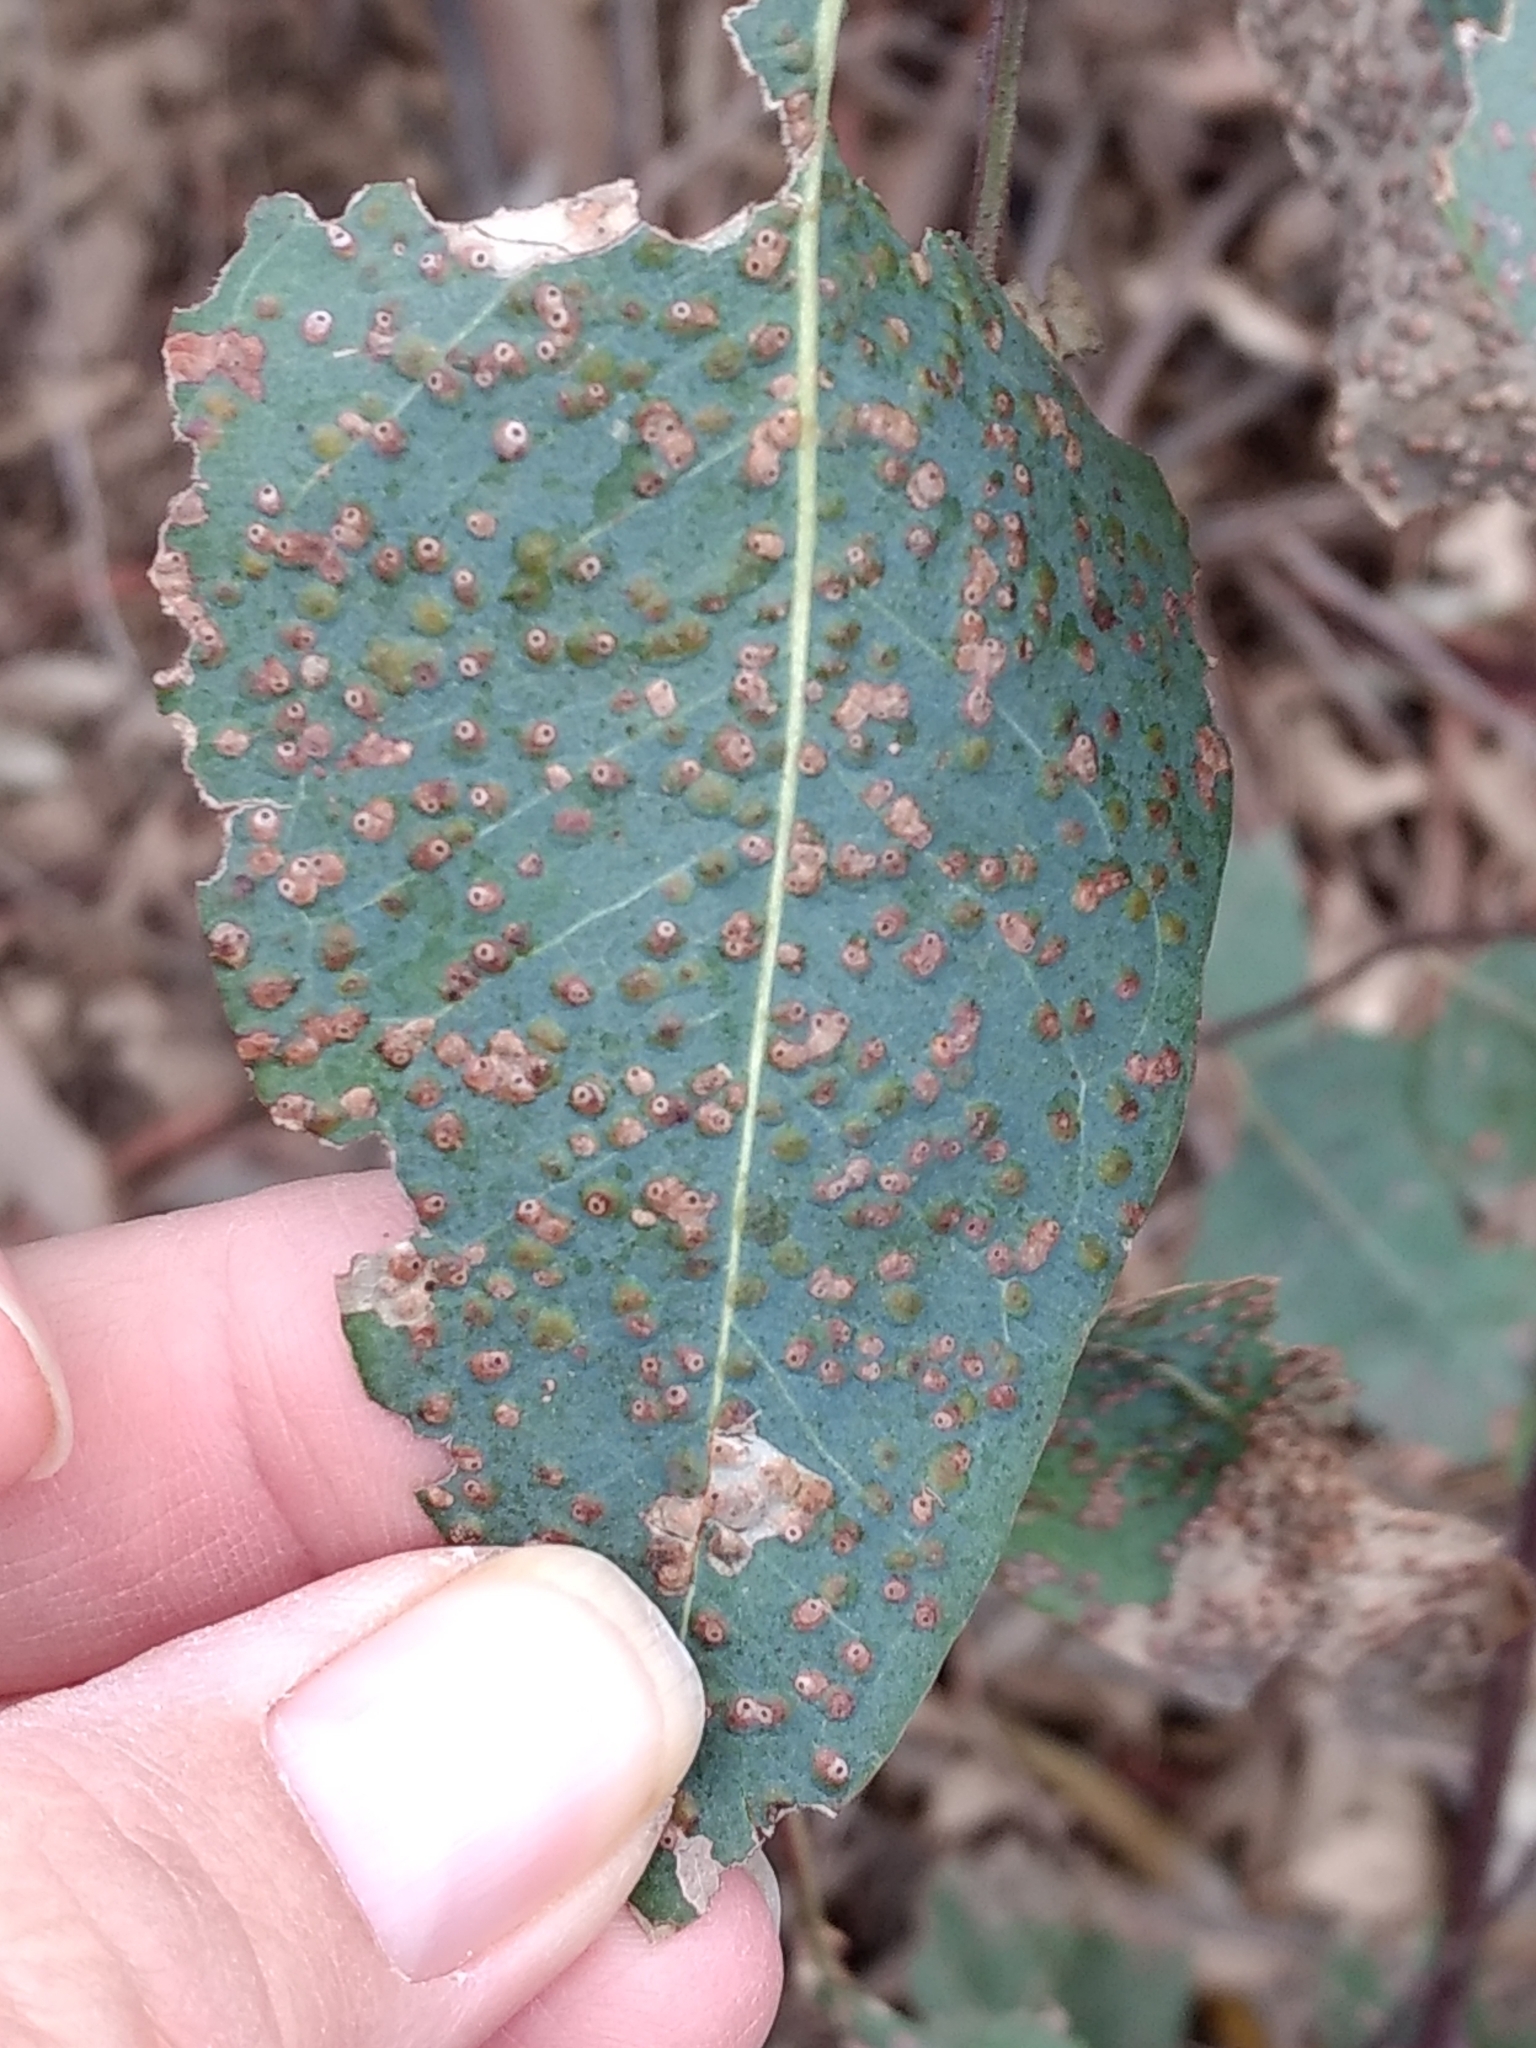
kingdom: Animalia
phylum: Arthropoda
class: Insecta
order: Hymenoptera
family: Eulophidae
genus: Ophelimus
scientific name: Ophelimus maskelli
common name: Gall wasp
